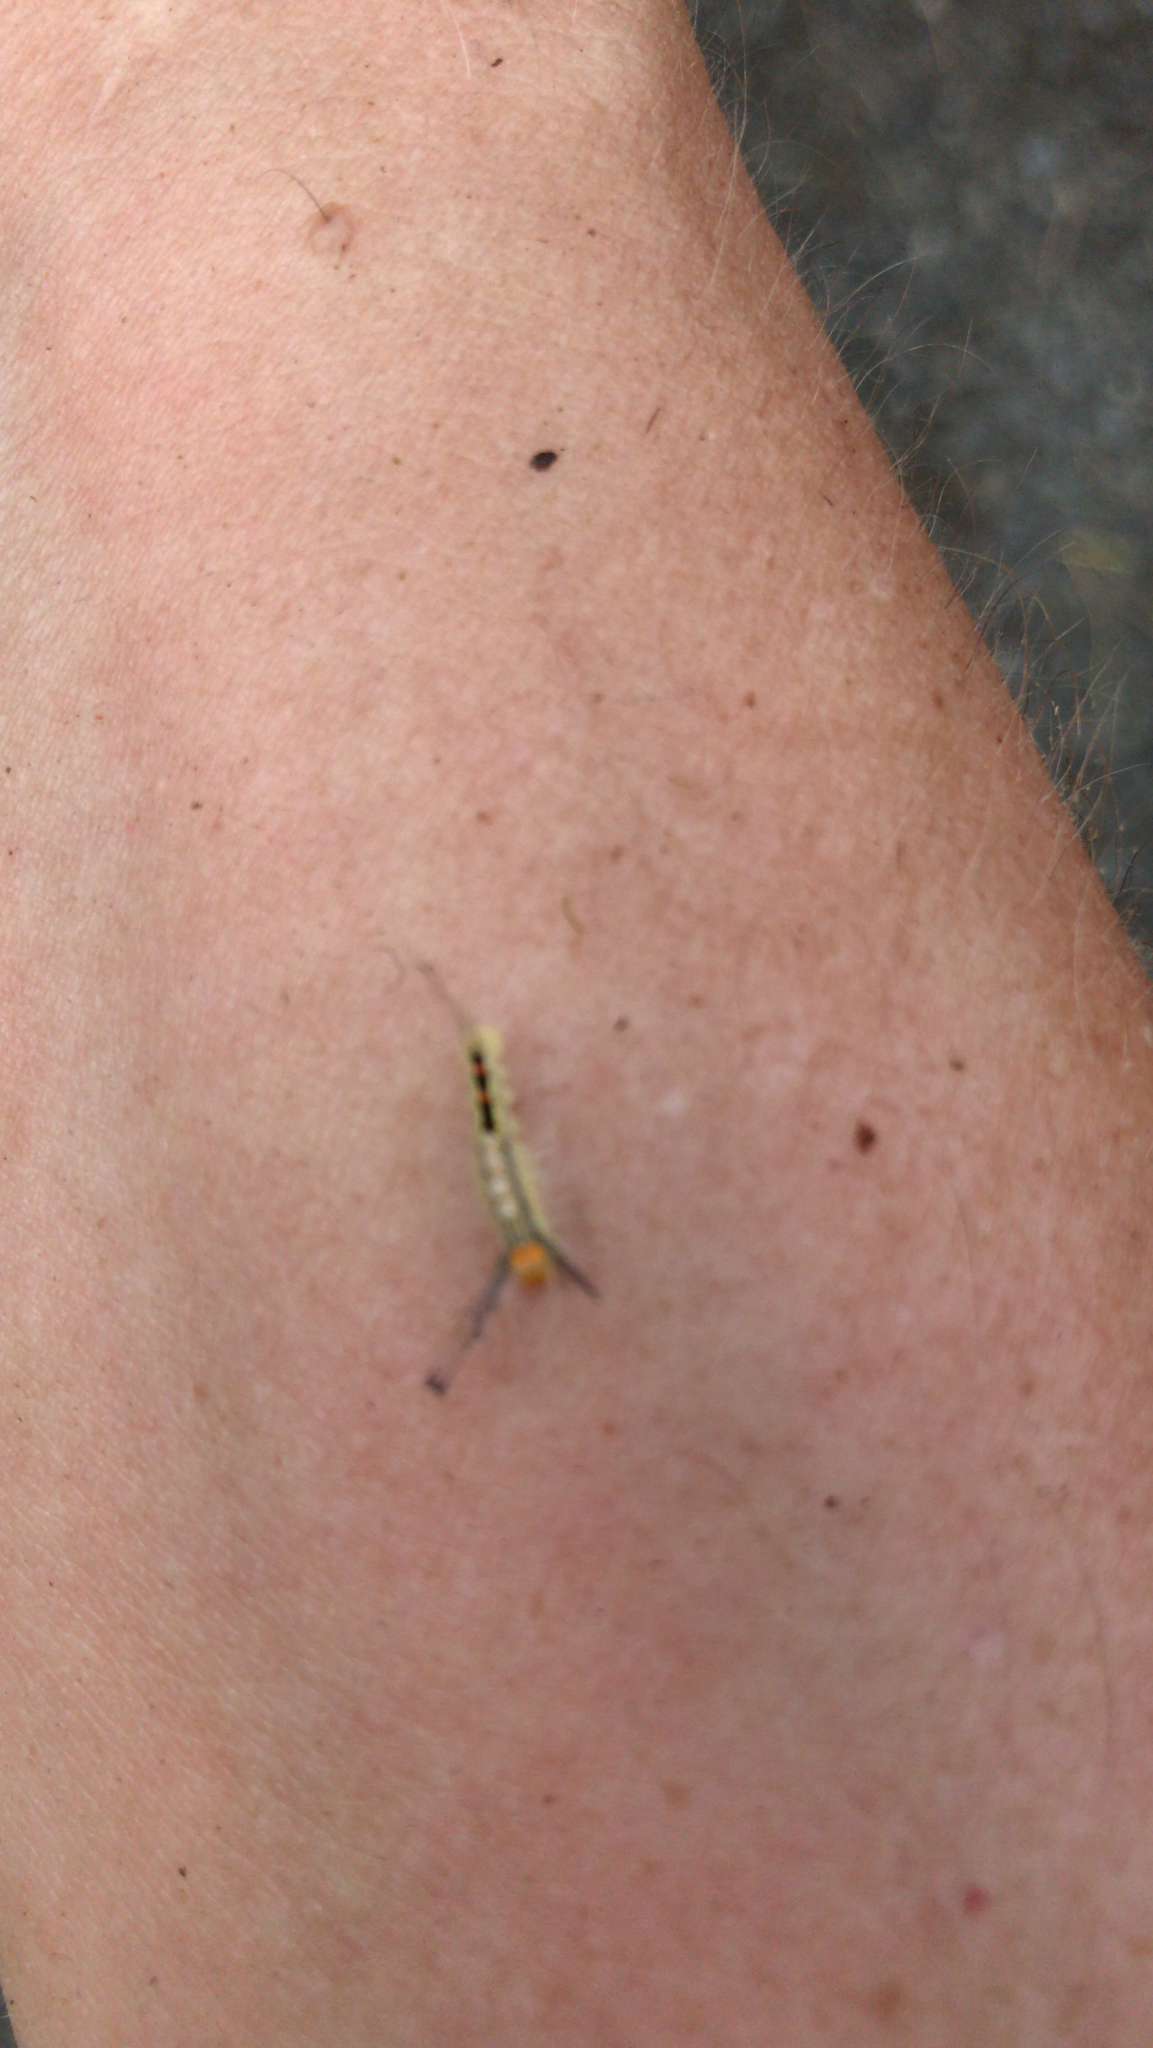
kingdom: Animalia
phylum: Arthropoda
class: Insecta
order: Lepidoptera
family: Erebidae
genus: Orgyia
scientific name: Orgyia leucostigma
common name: White-marked tussock moth
